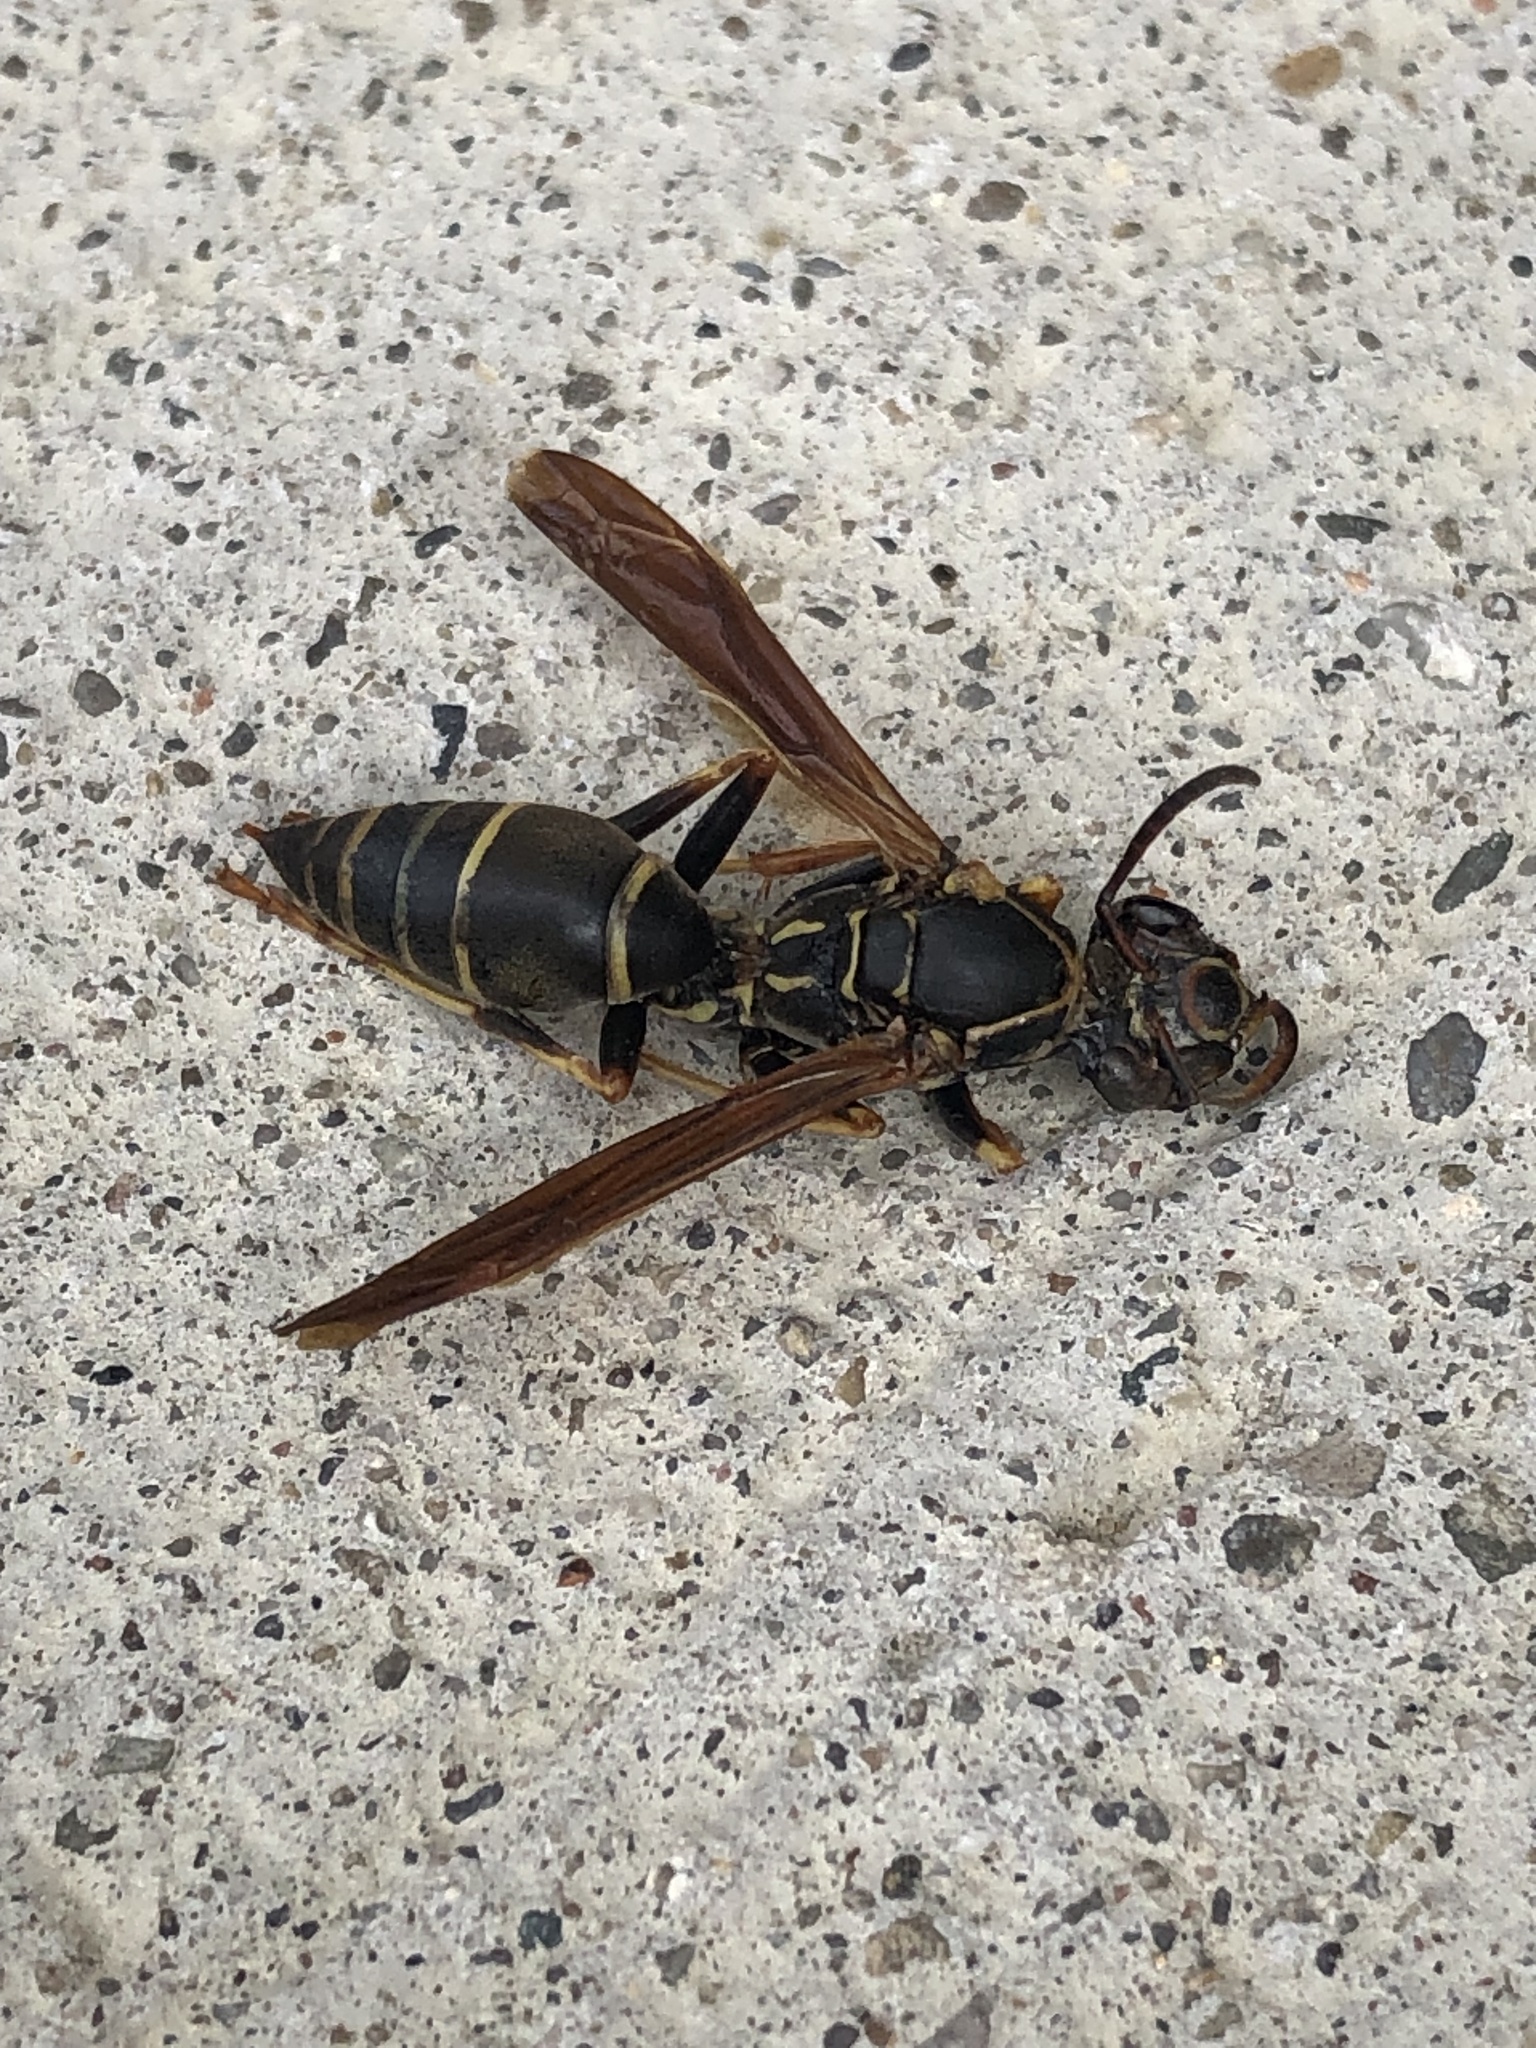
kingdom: Animalia
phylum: Arthropoda
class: Insecta
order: Hymenoptera
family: Eumenidae
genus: Polistes
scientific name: Polistes fuscatus
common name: Dark paper wasp
